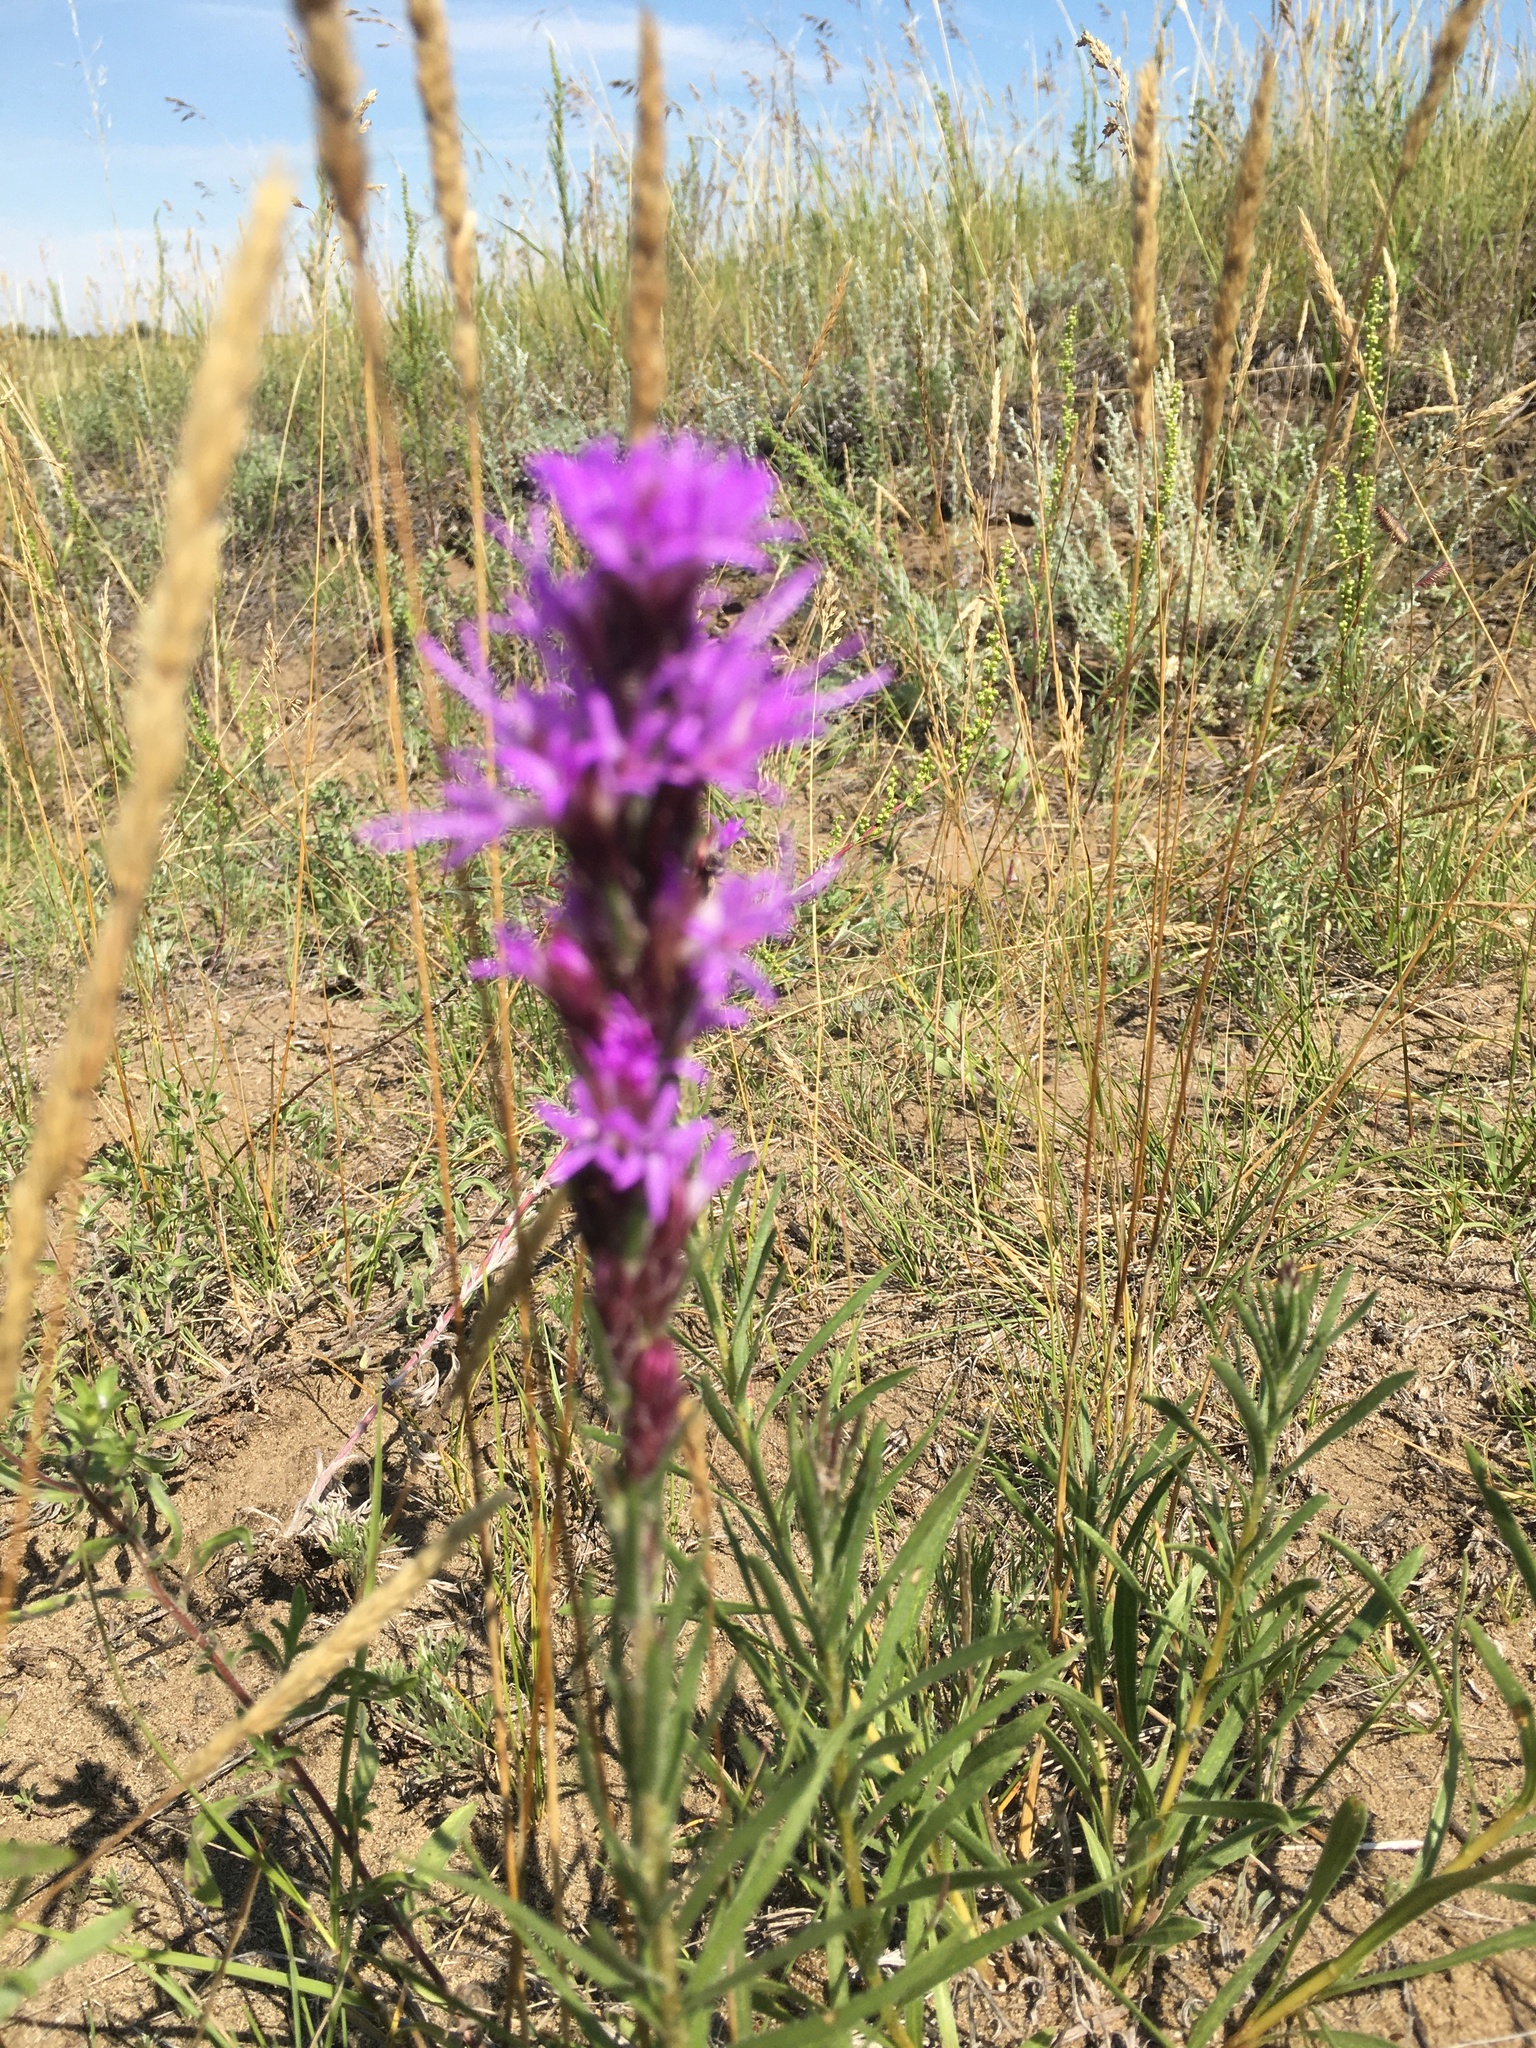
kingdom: Plantae
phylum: Tracheophyta
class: Magnoliopsida
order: Asterales
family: Asteraceae
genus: Liatris
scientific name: Liatris punctata
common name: Dotted gayfeather
